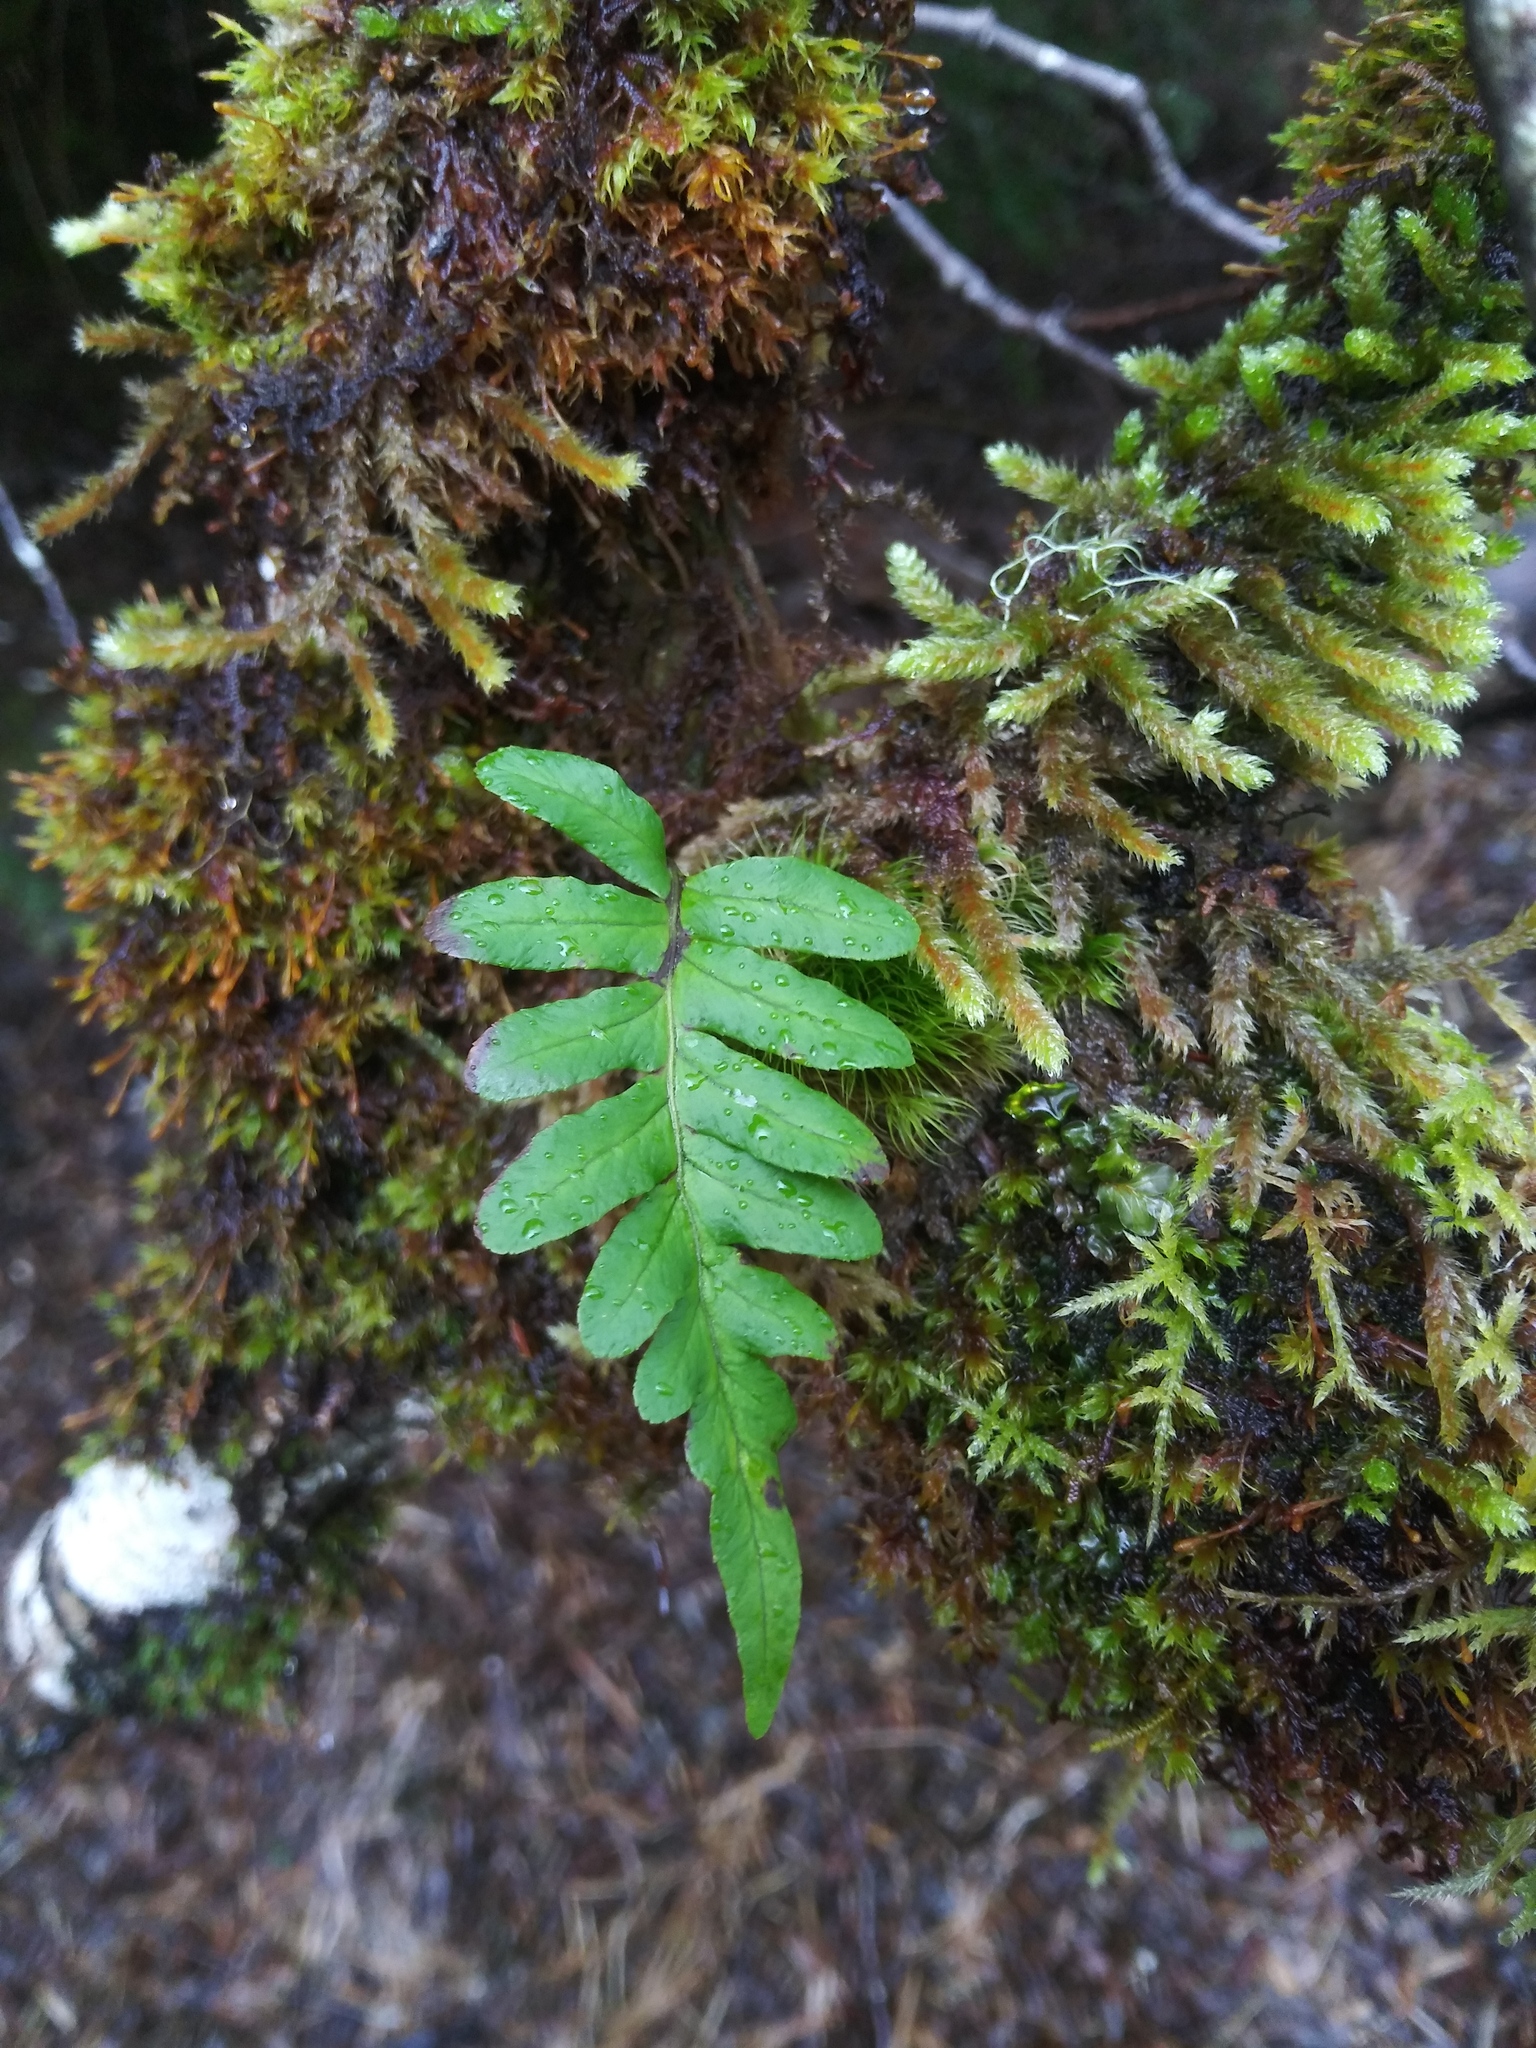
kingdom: Plantae
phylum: Tracheophyta
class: Polypodiopsida
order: Polypodiales
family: Polypodiaceae
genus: Polypodium
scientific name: Polypodium glycyrrhiza
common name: Licorice fern
